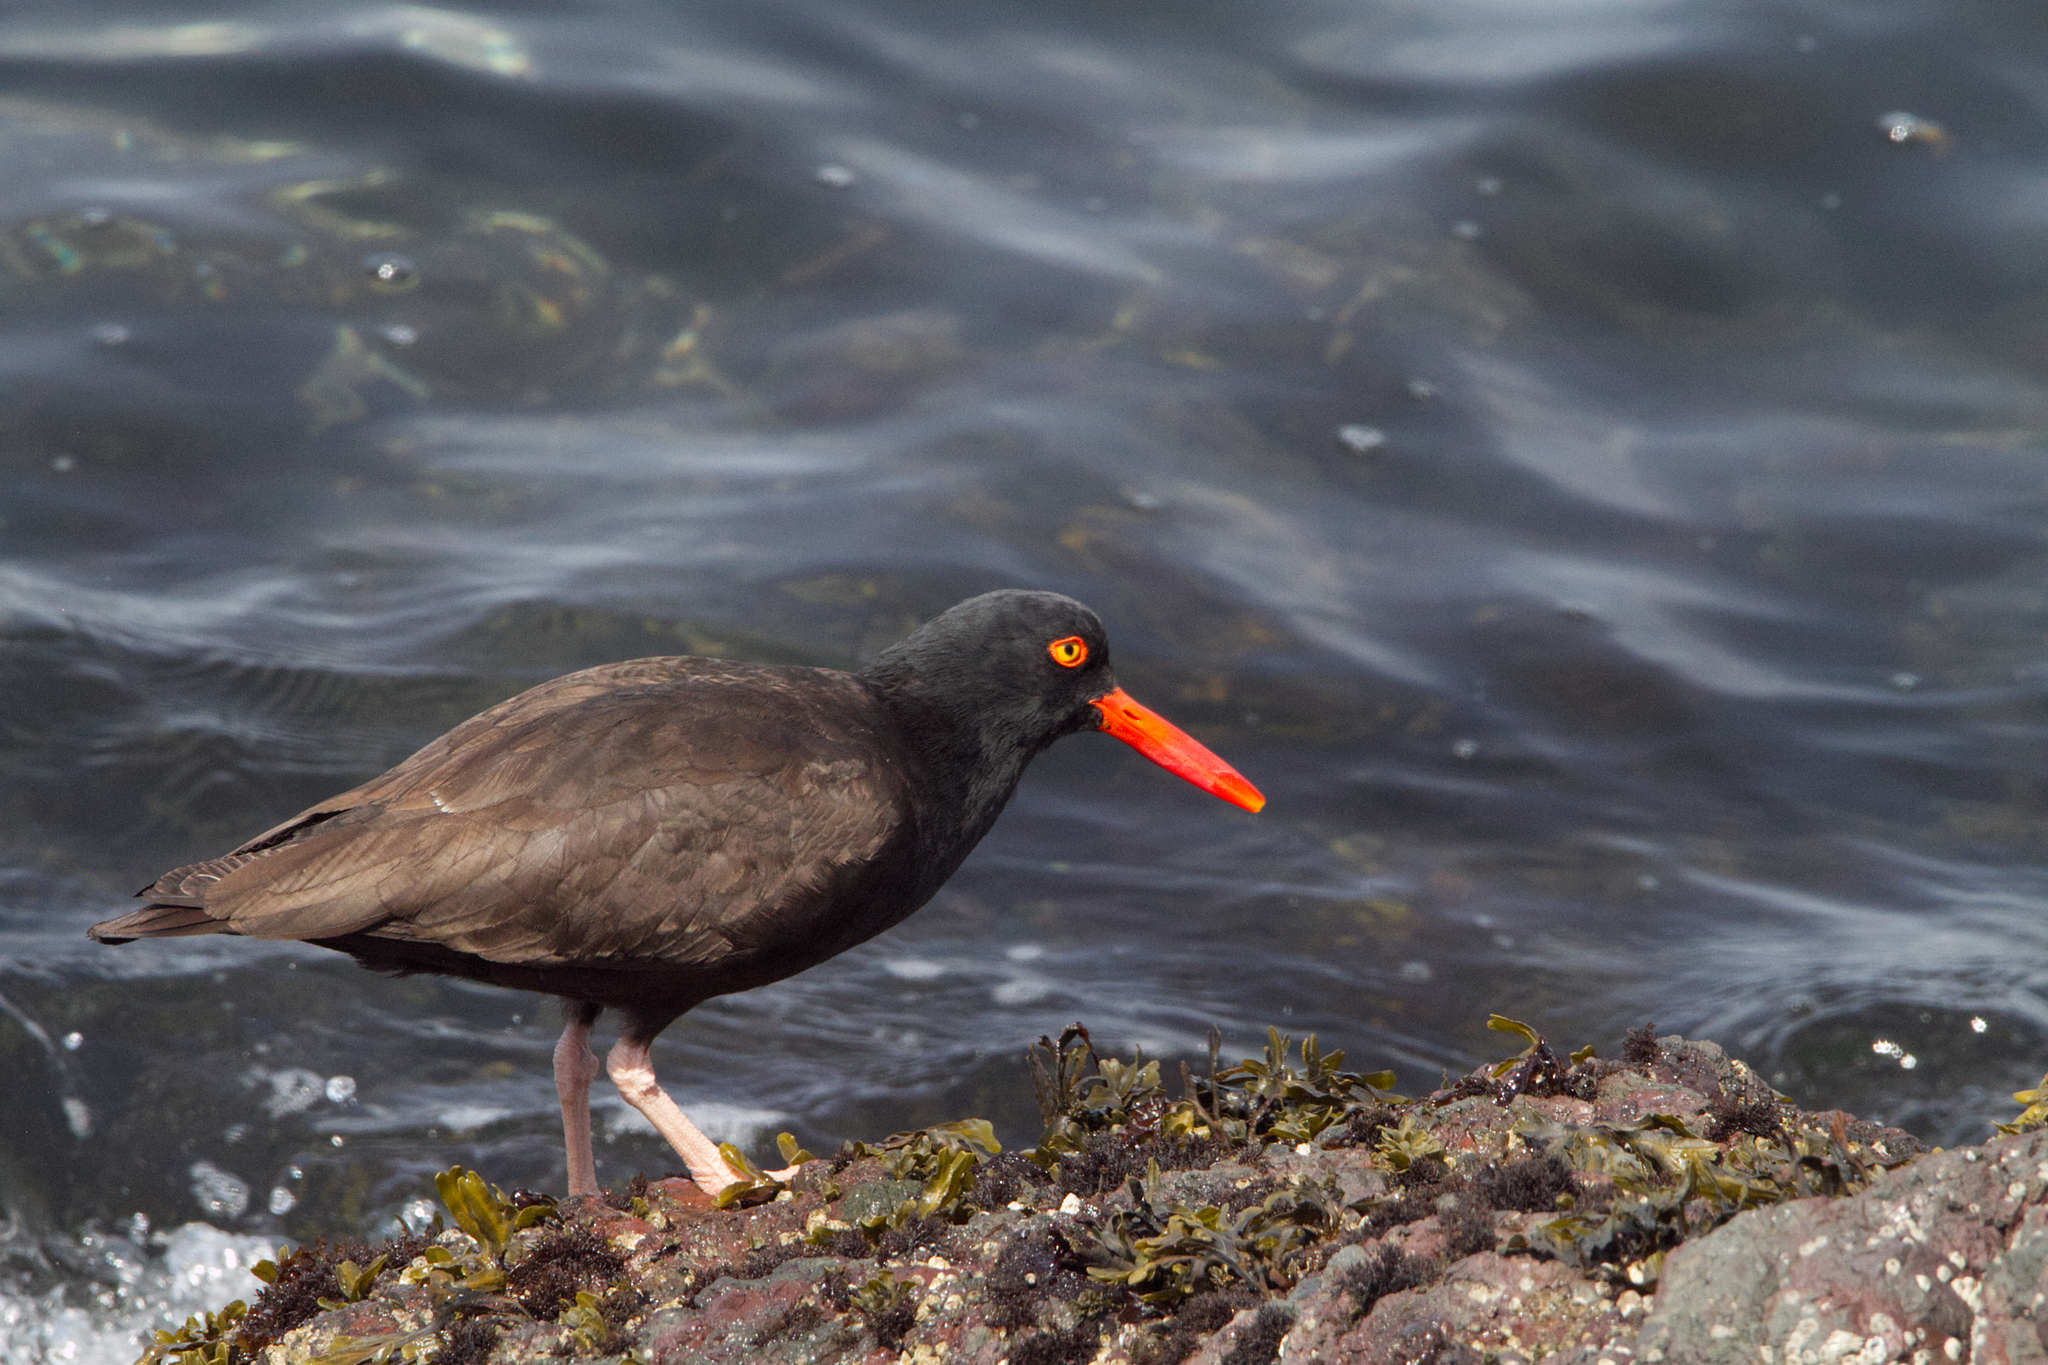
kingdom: Animalia
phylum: Chordata
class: Aves
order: Charadriiformes
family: Haematopodidae
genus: Haematopus
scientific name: Haematopus bachmani
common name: Black oystercatcher
